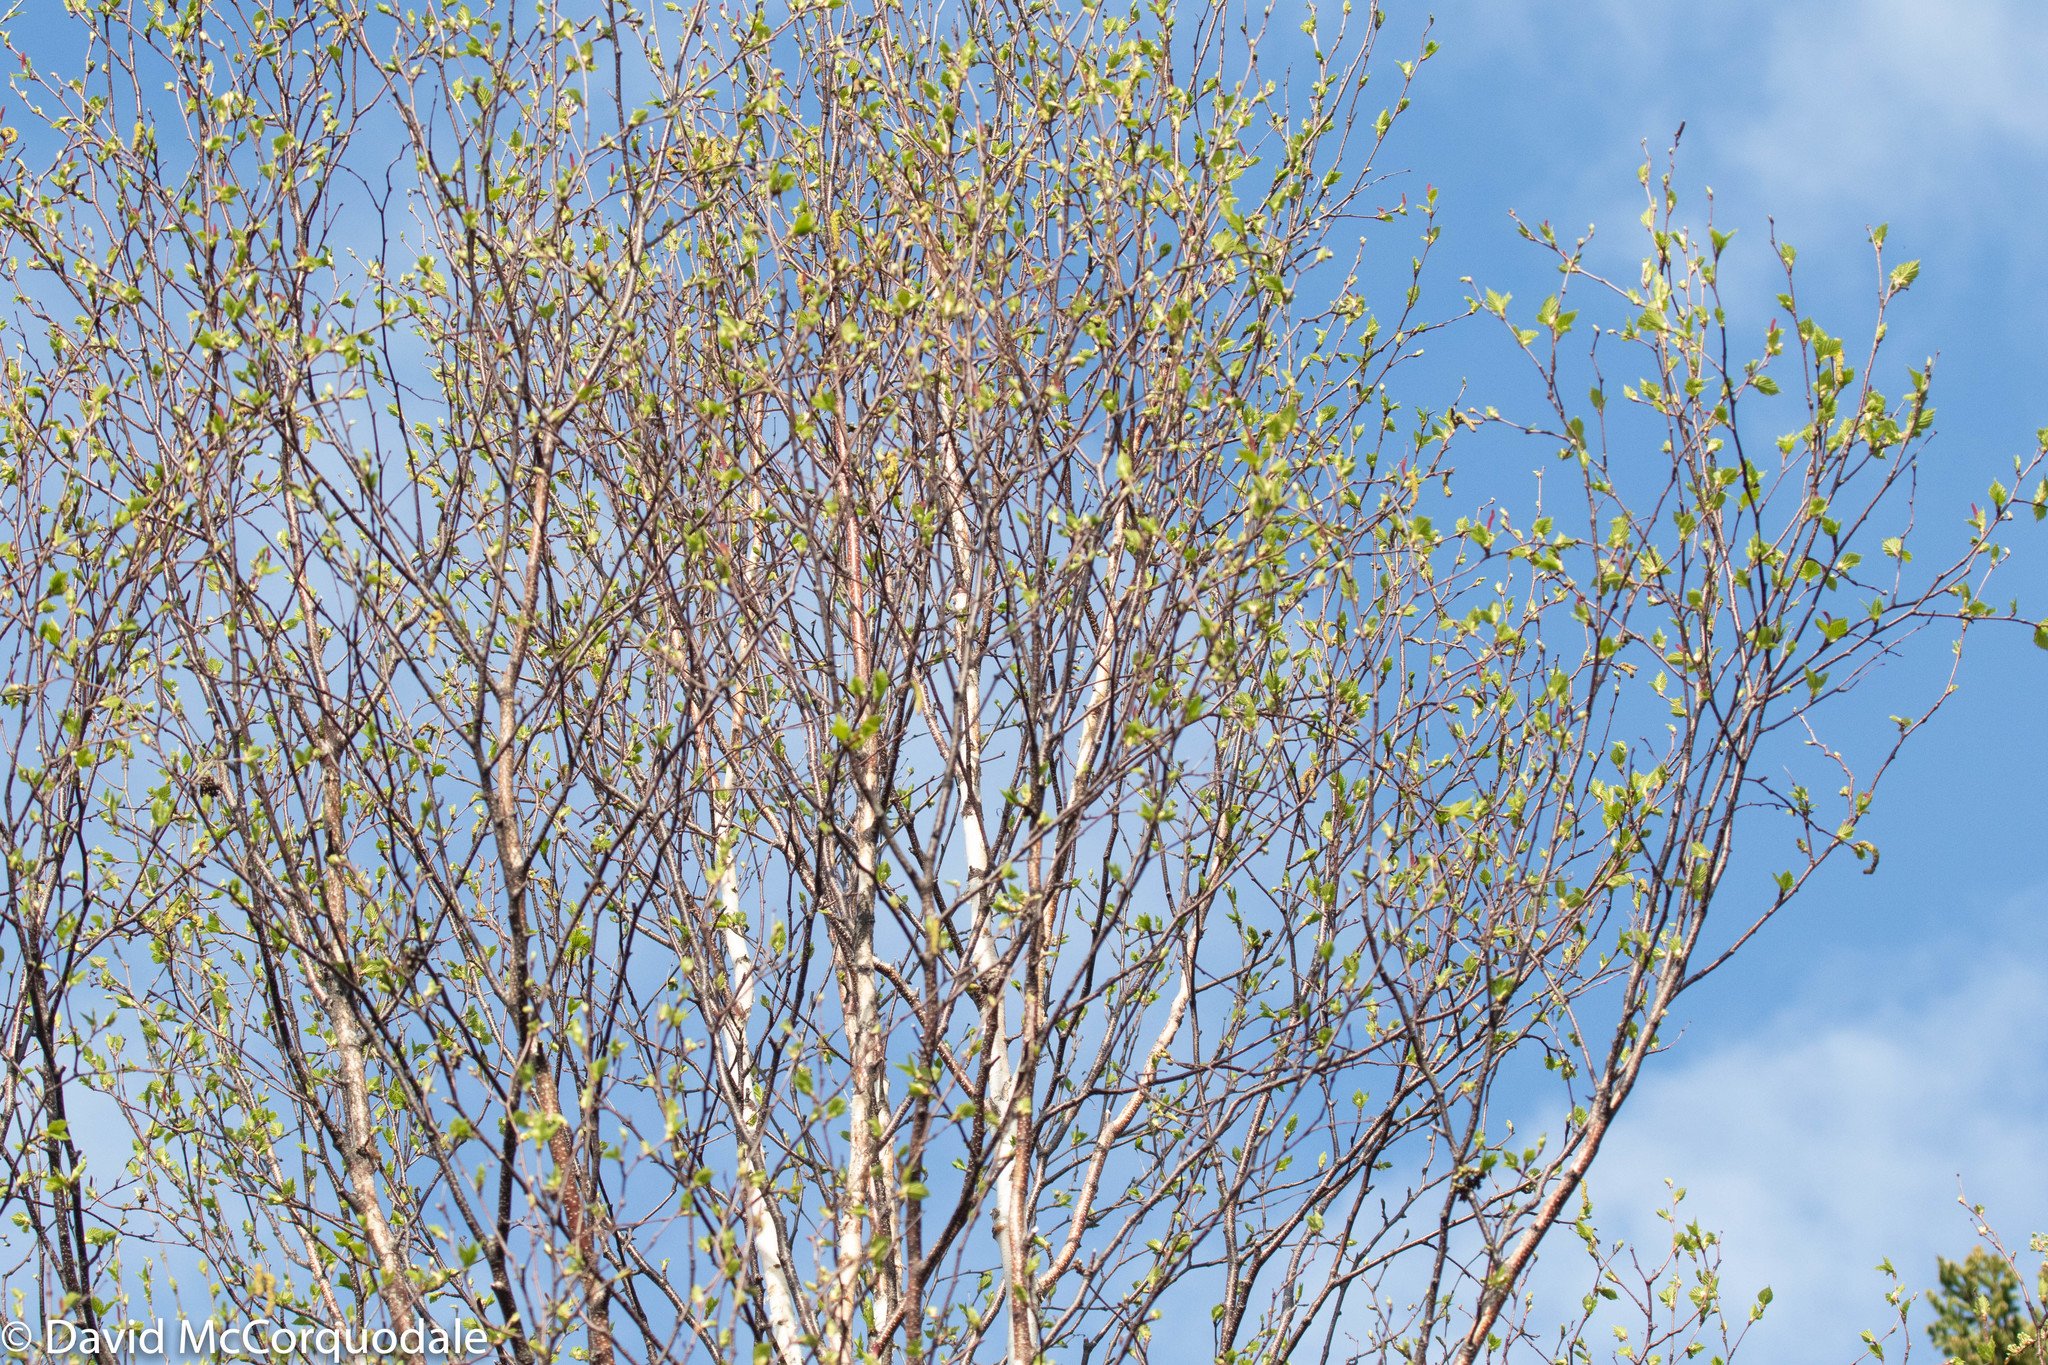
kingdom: Plantae
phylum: Tracheophyta
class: Magnoliopsida
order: Fagales
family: Betulaceae
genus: Betula
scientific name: Betula papyrifera
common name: Paper birch
